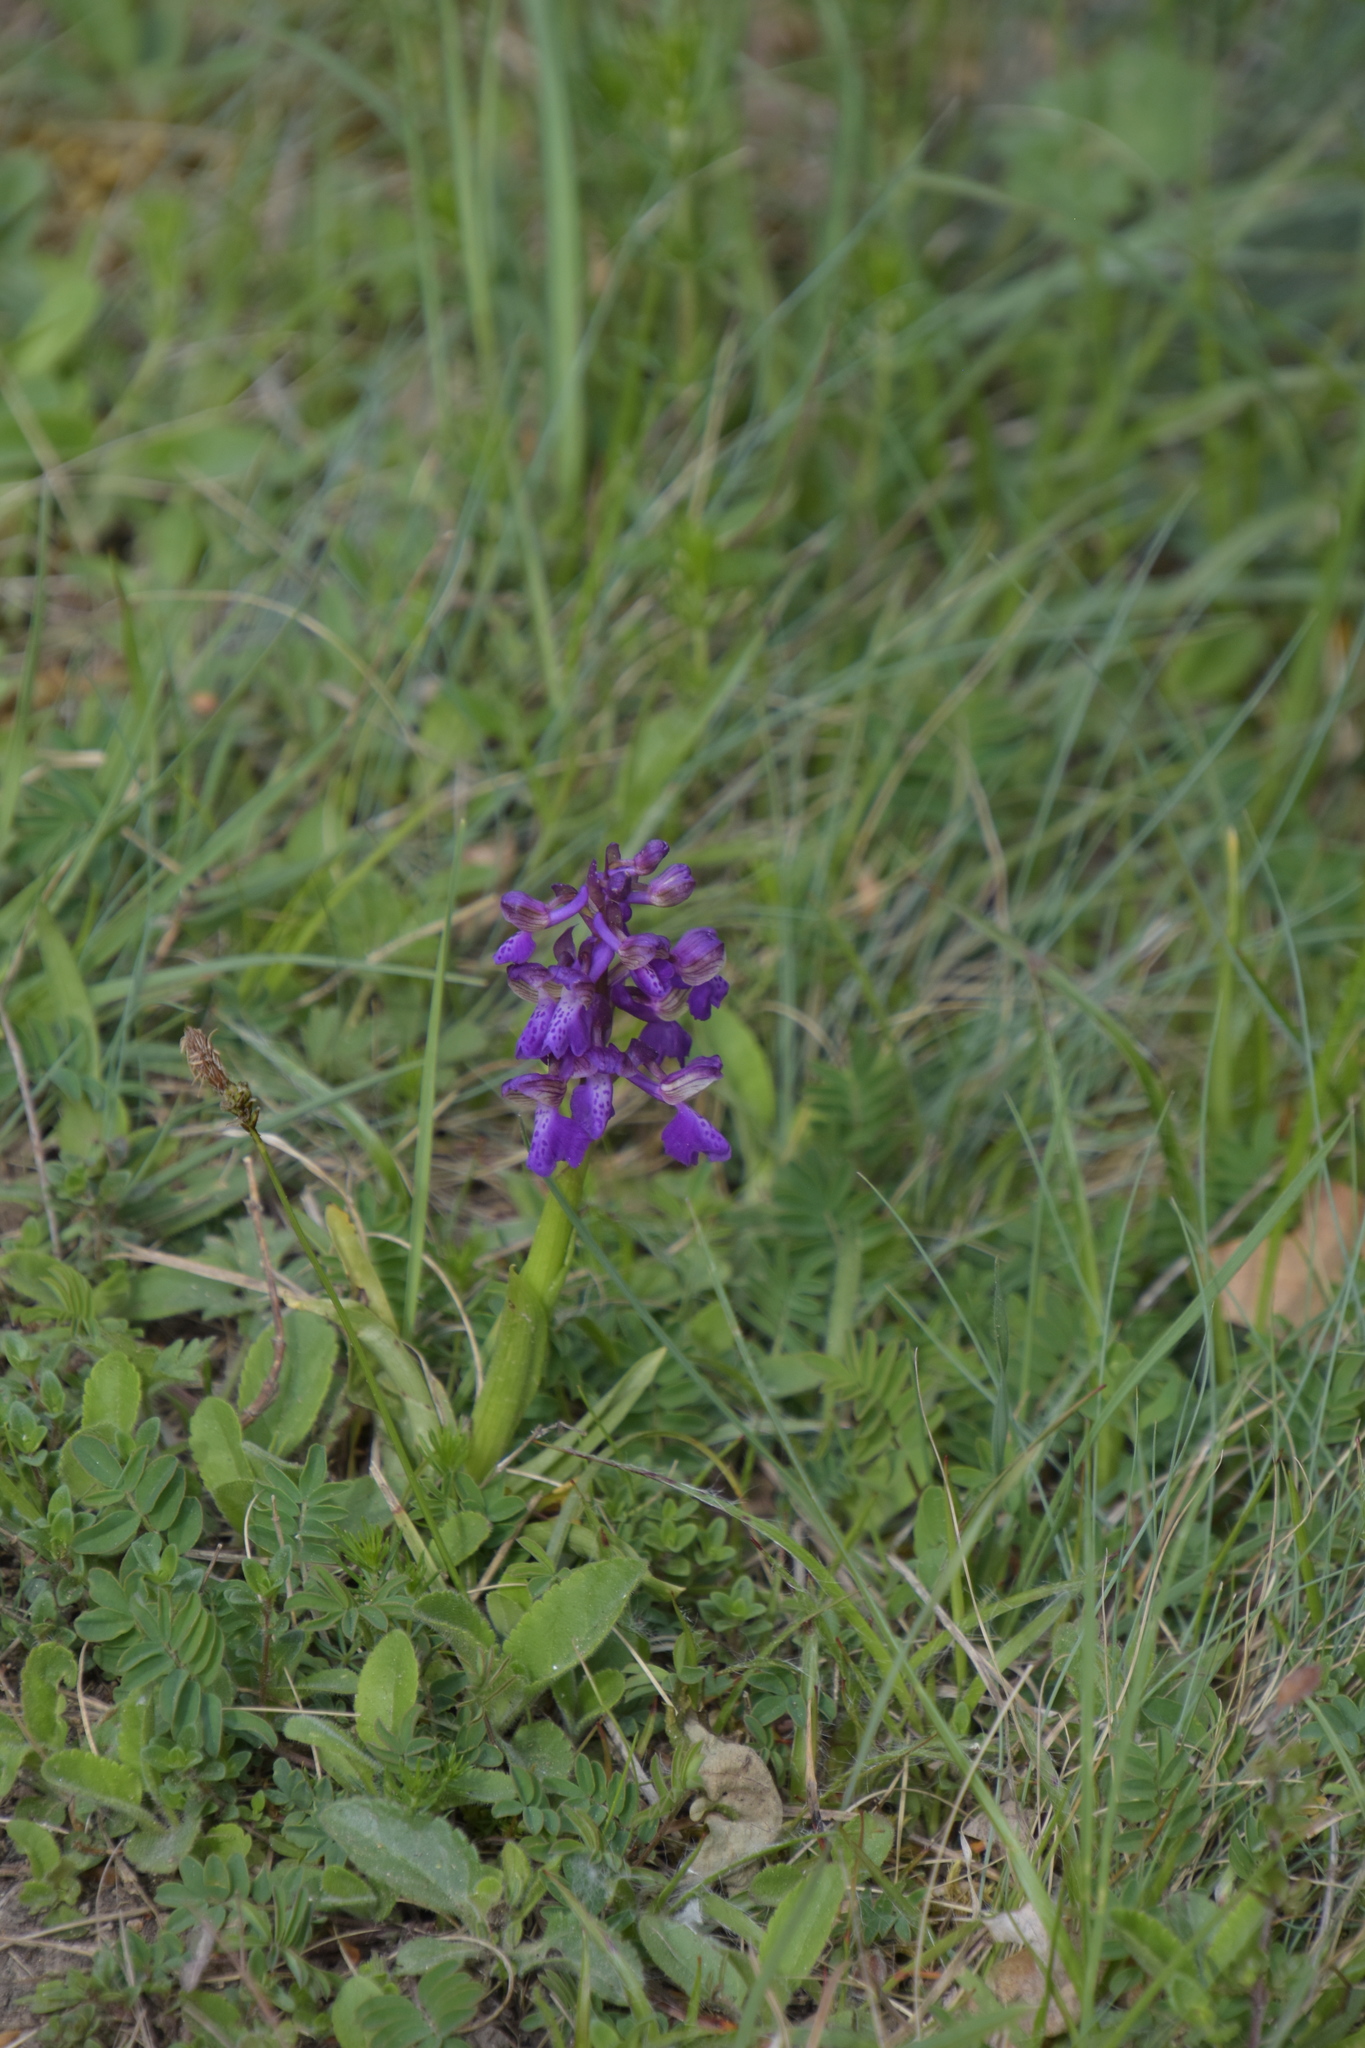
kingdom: Plantae
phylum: Tracheophyta
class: Liliopsida
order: Asparagales
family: Orchidaceae
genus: Anacamptis
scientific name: Anacamptis morio
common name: Green-winged orchid
